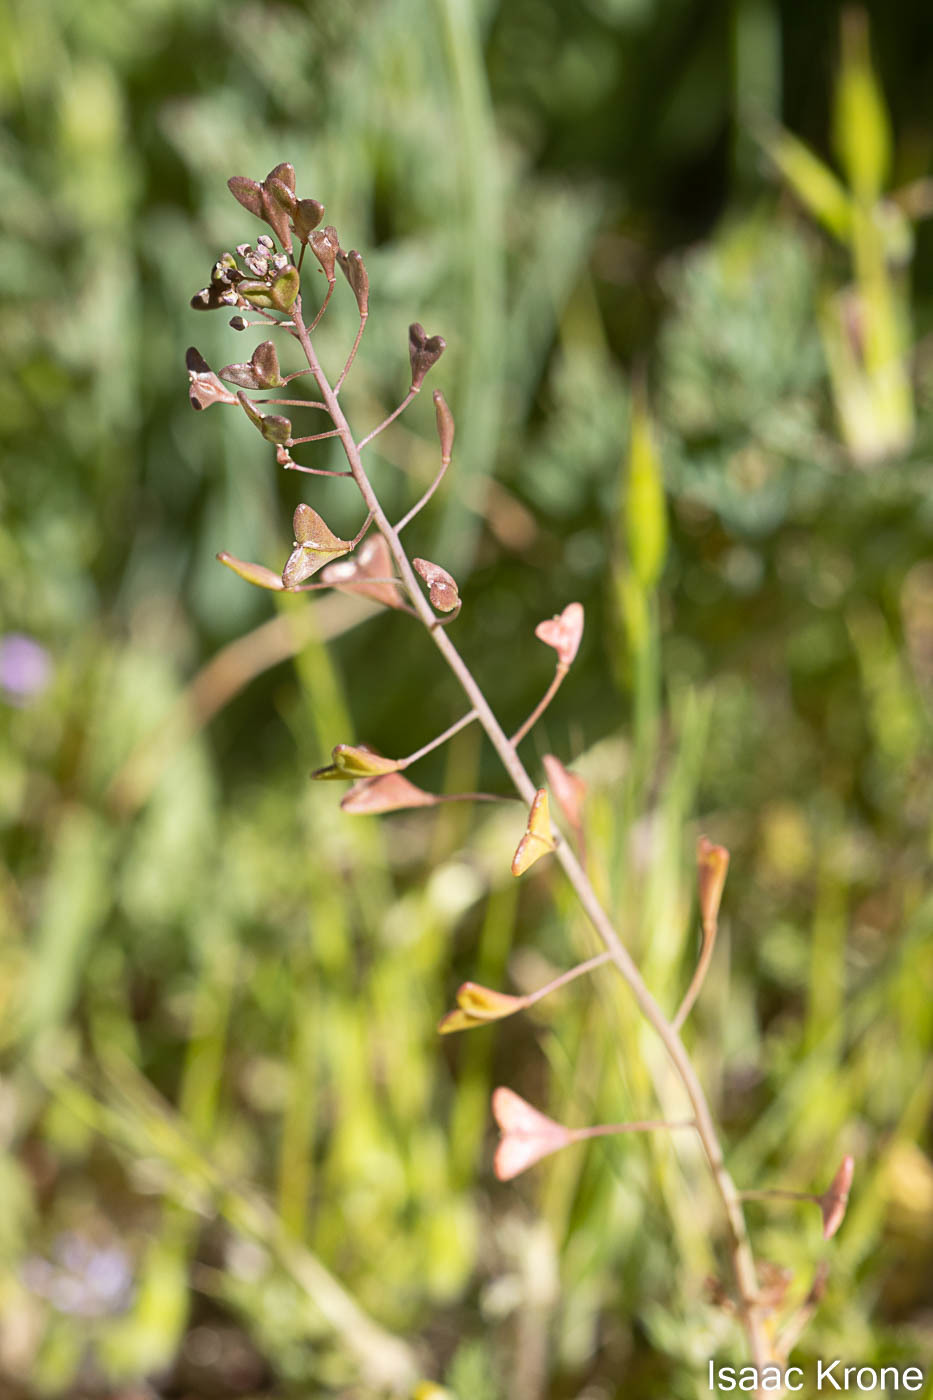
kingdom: Plantae
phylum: Tracheophyta
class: Magnoliopsida
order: Brassicales
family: Brassicaceae
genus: Capsella
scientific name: Capsella bursa-pastoris
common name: Shepherd's purse
